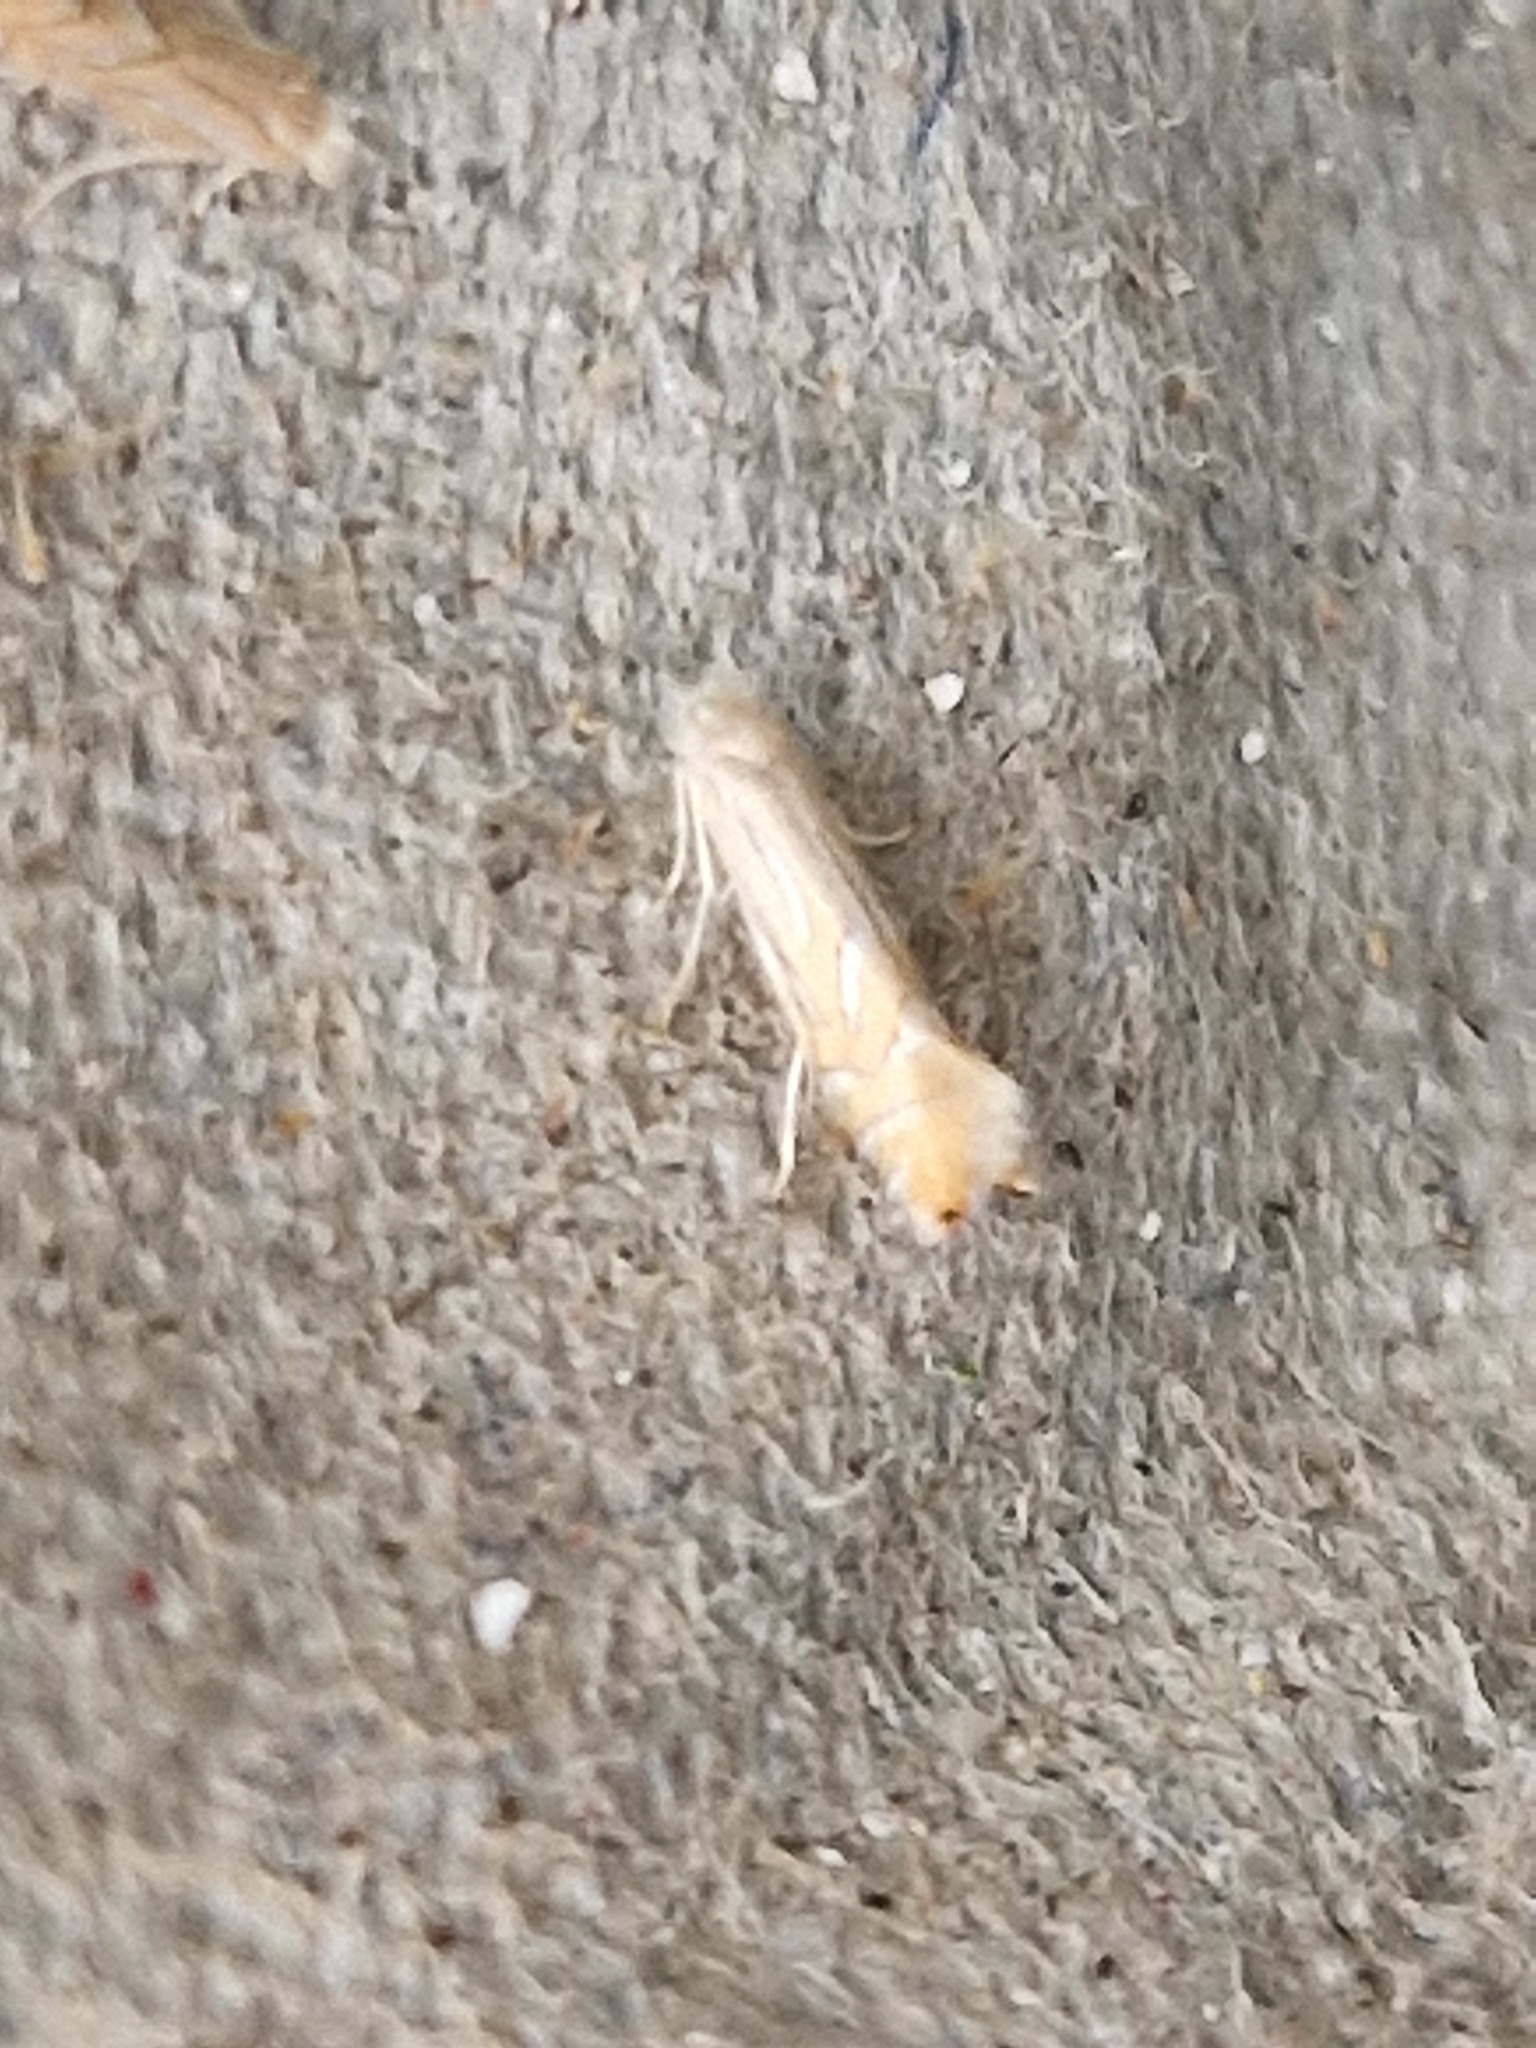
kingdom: Animalia
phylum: Arthropoda
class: Insecta
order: Lepidoptera
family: Gracillariidae
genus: Phyllonorycter
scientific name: Phyllonorycter platani
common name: London midget
